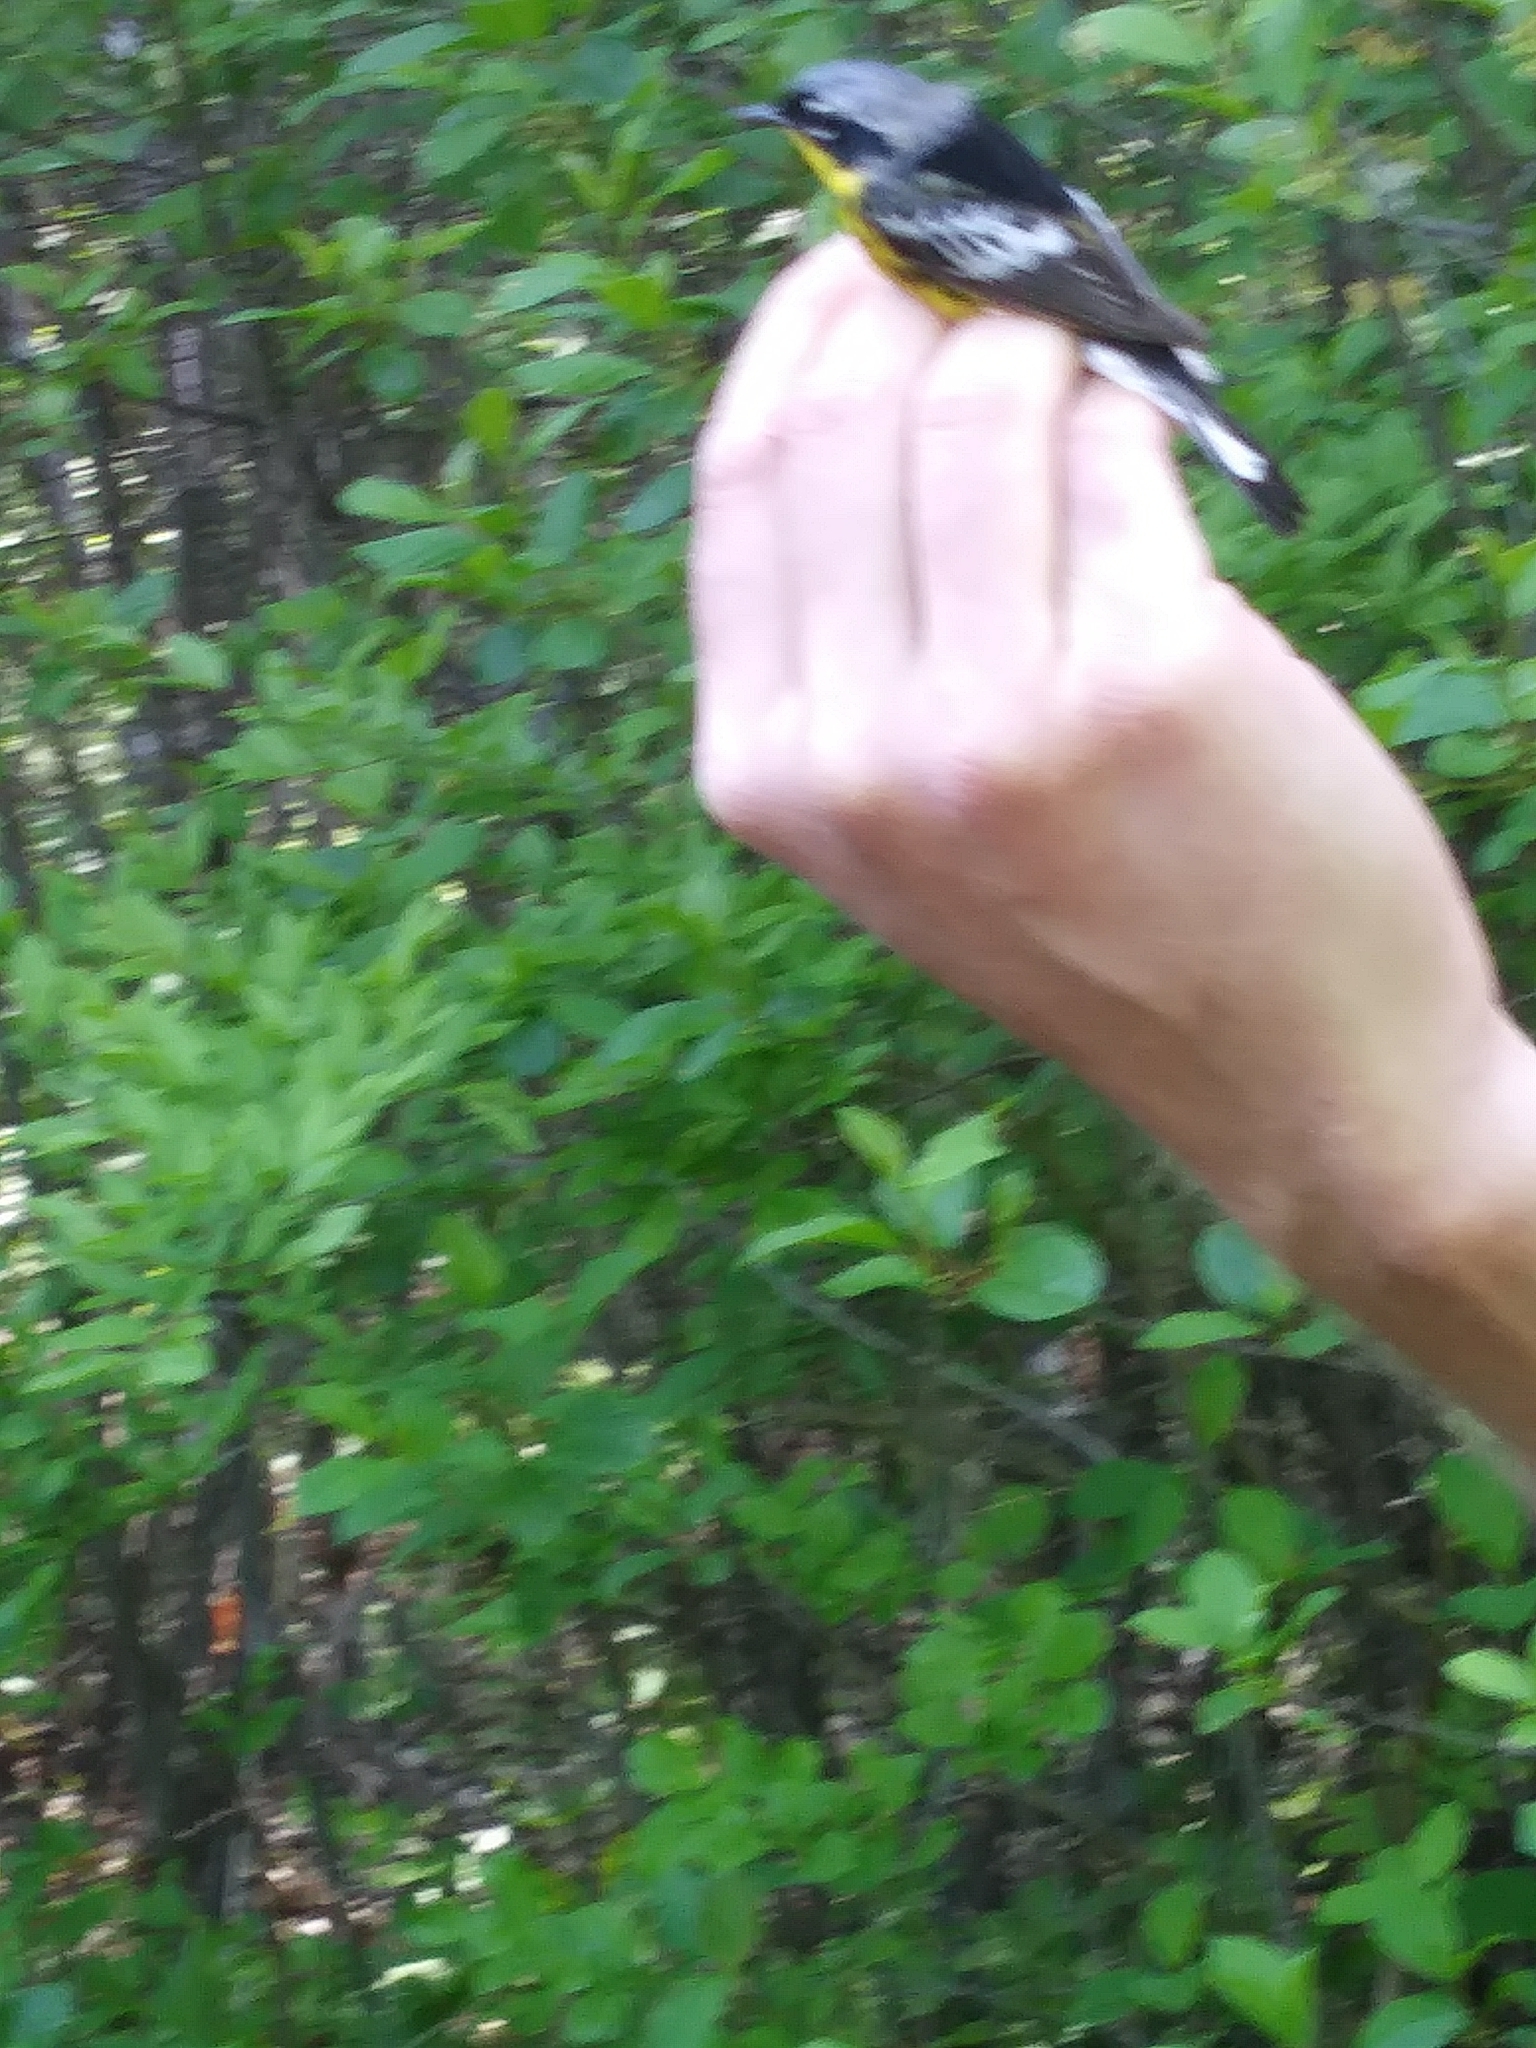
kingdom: Animalia
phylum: Chordata
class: Aves
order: Passeriformes
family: Parulidae
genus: Setophaga
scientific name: Setophaga magnolia
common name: Magnolia warbler
